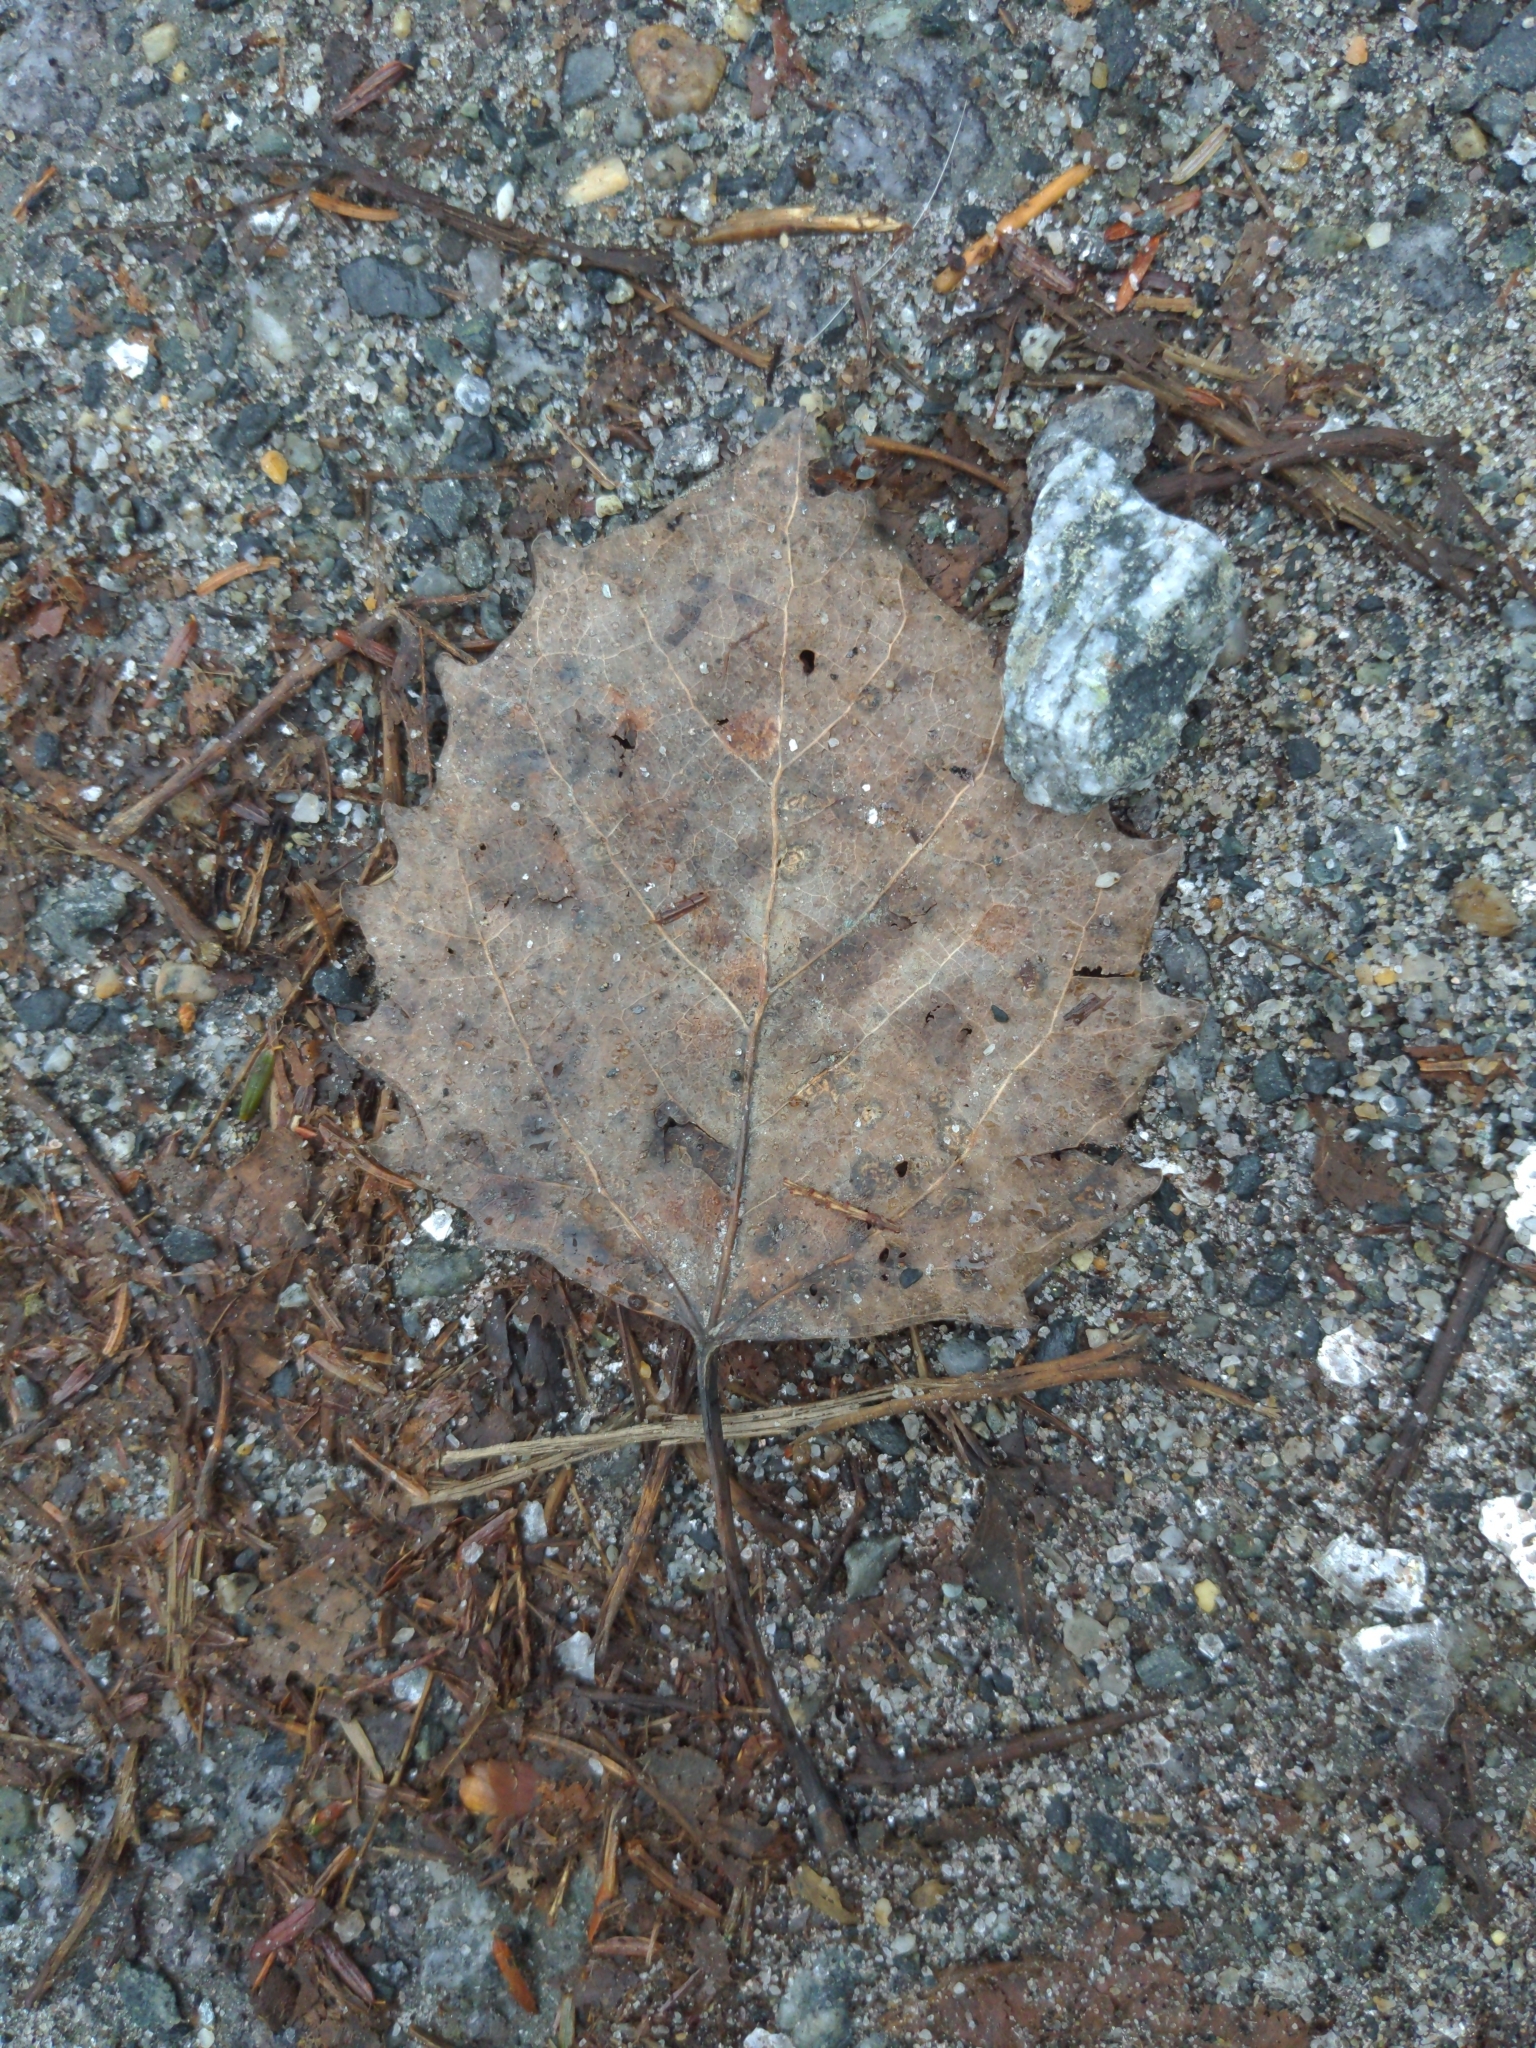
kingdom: Plantae
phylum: Tracheophyta
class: Magnoliopsida
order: Malpighiales
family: Salicaceae
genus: Populus
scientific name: Populus grandidentata
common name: Bigtooth aspen
